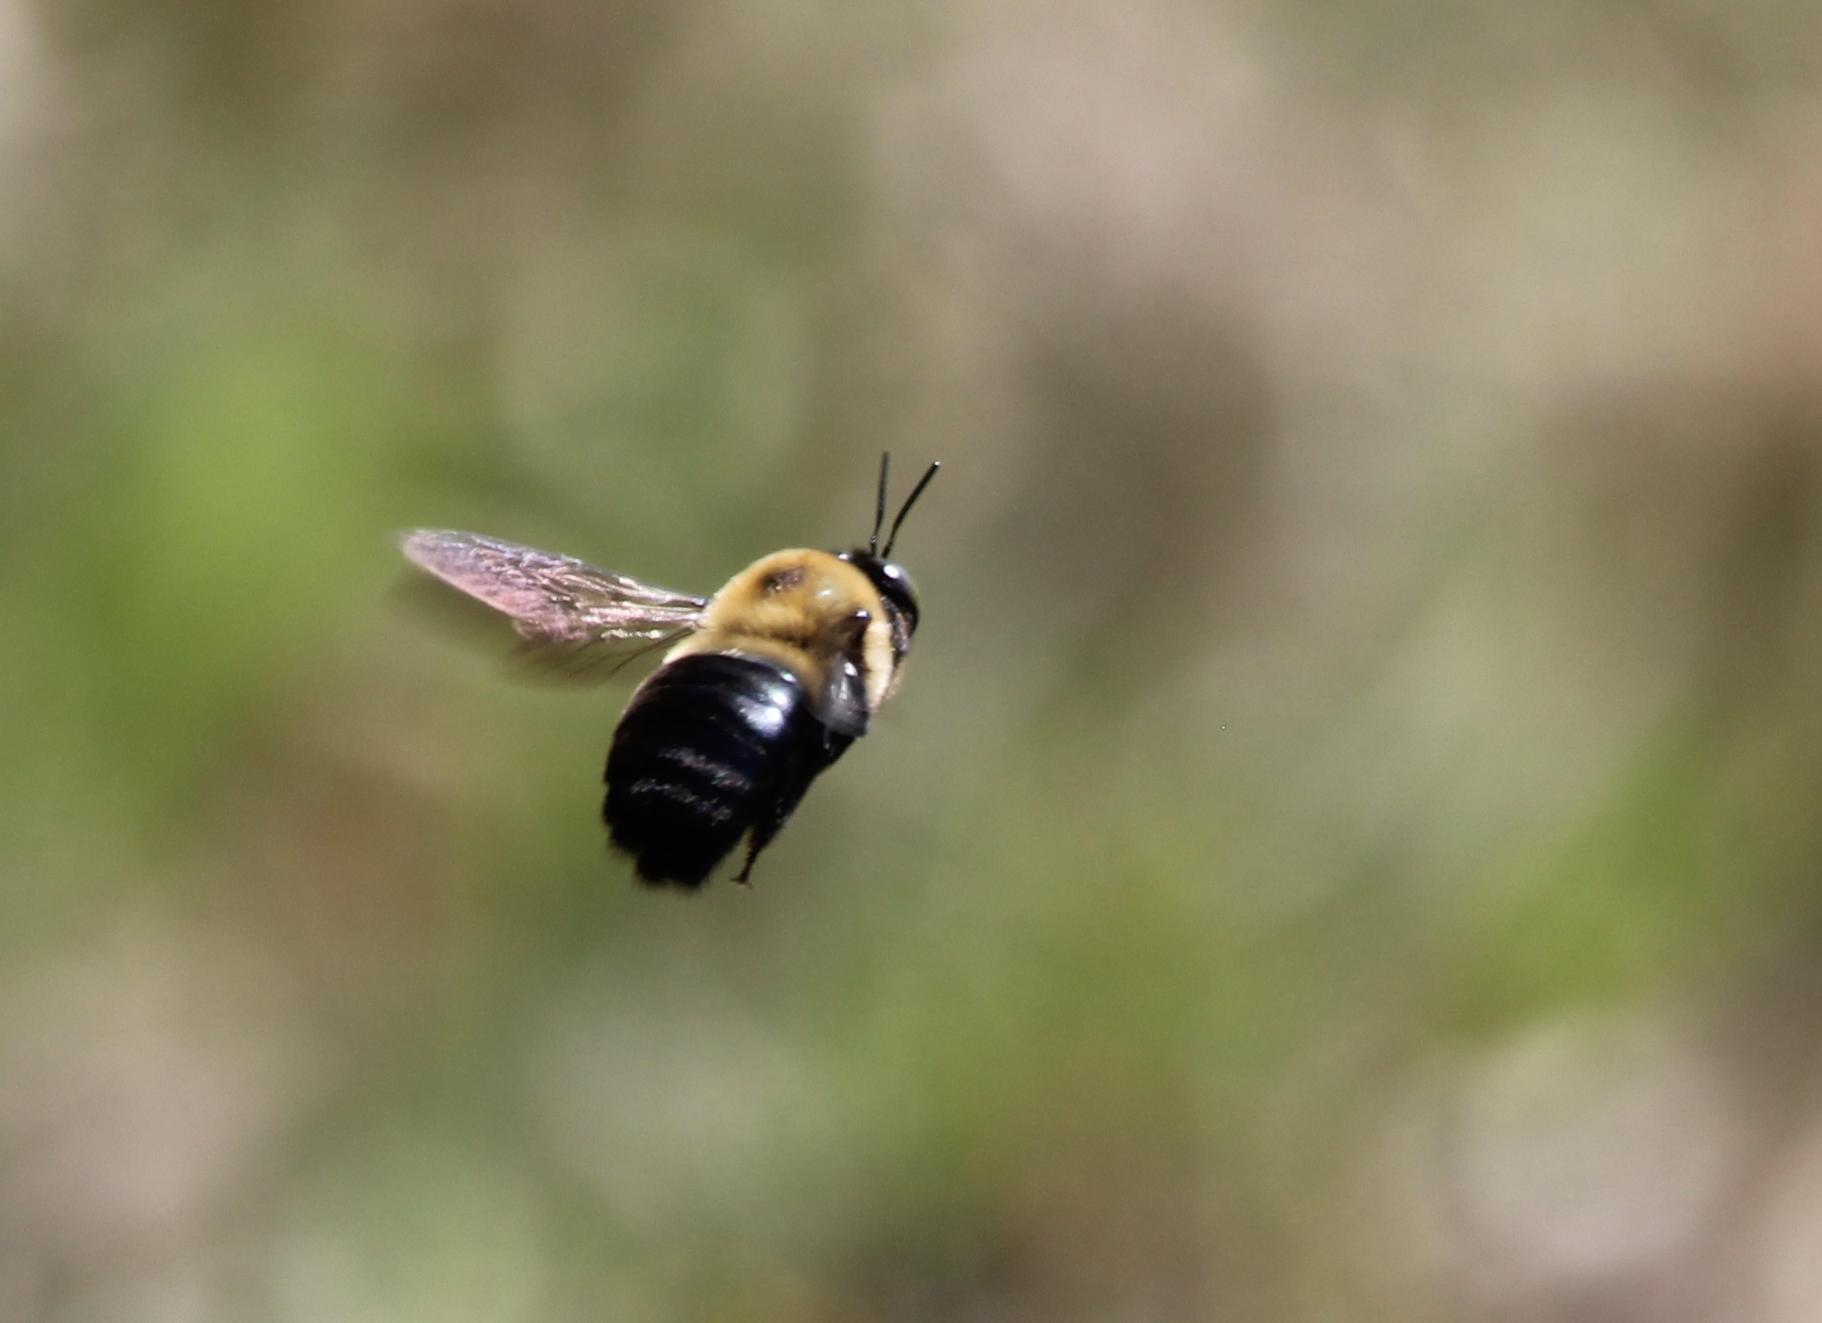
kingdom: Animalia
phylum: Arthropoda
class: Insecta
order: Hymenoptera
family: Apidae
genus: Xylocopa
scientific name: Xylocopa virginica
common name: Carpenter bee
